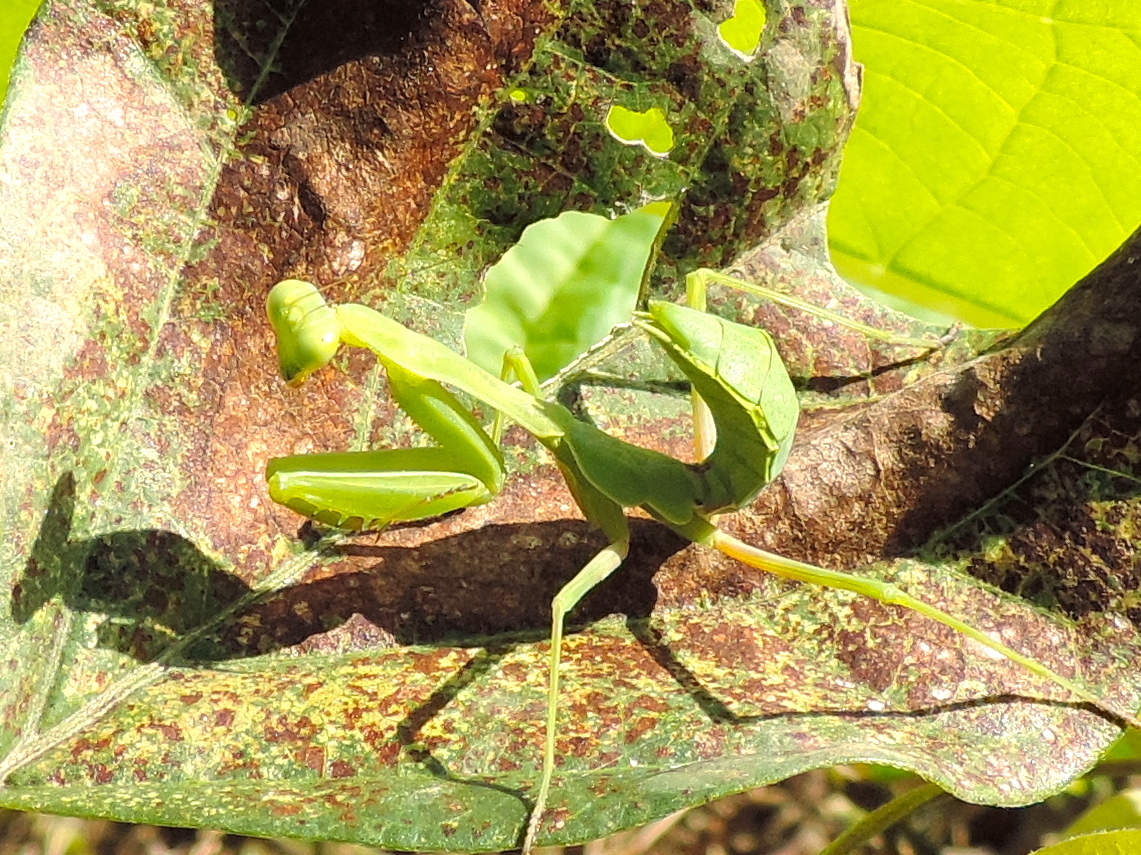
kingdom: Animalia
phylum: Arthropoda
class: Insecta
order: Mantodea
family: Mantidae
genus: Stagmomantis
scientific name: Stagmomantis limbata
